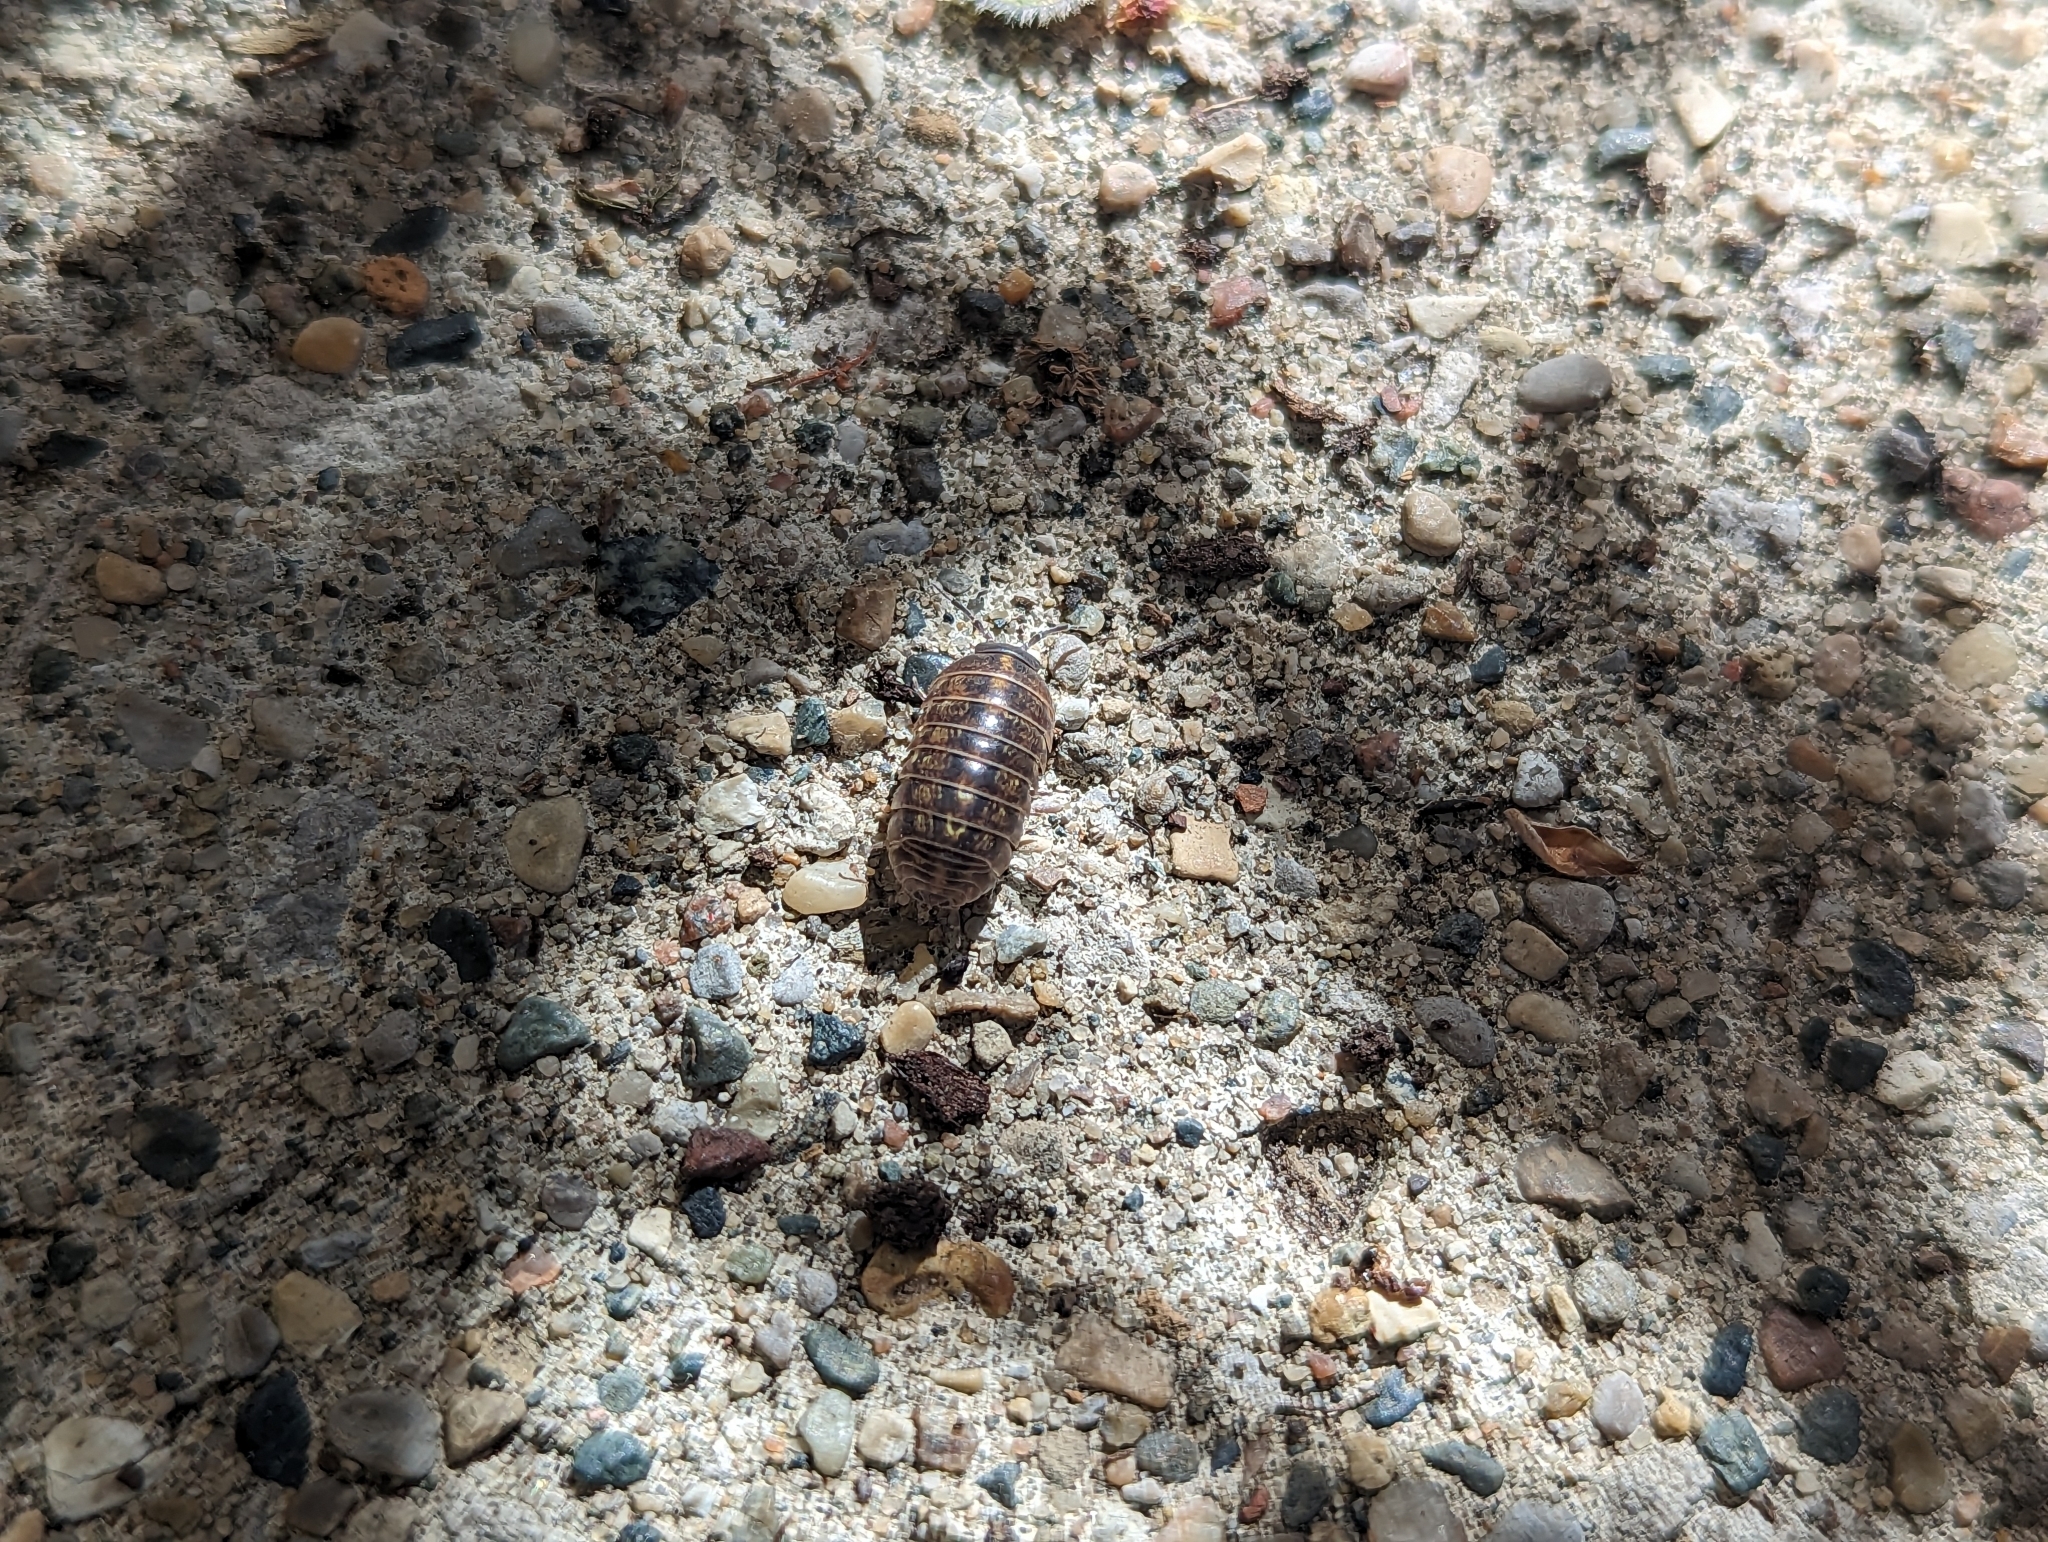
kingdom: Animalia
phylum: Arthropoda
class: Malacostraca
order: Isopoda
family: Armadillidiidae
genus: Armadillidium
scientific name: Armadillidium vulgare
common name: Common pill woodlouse
